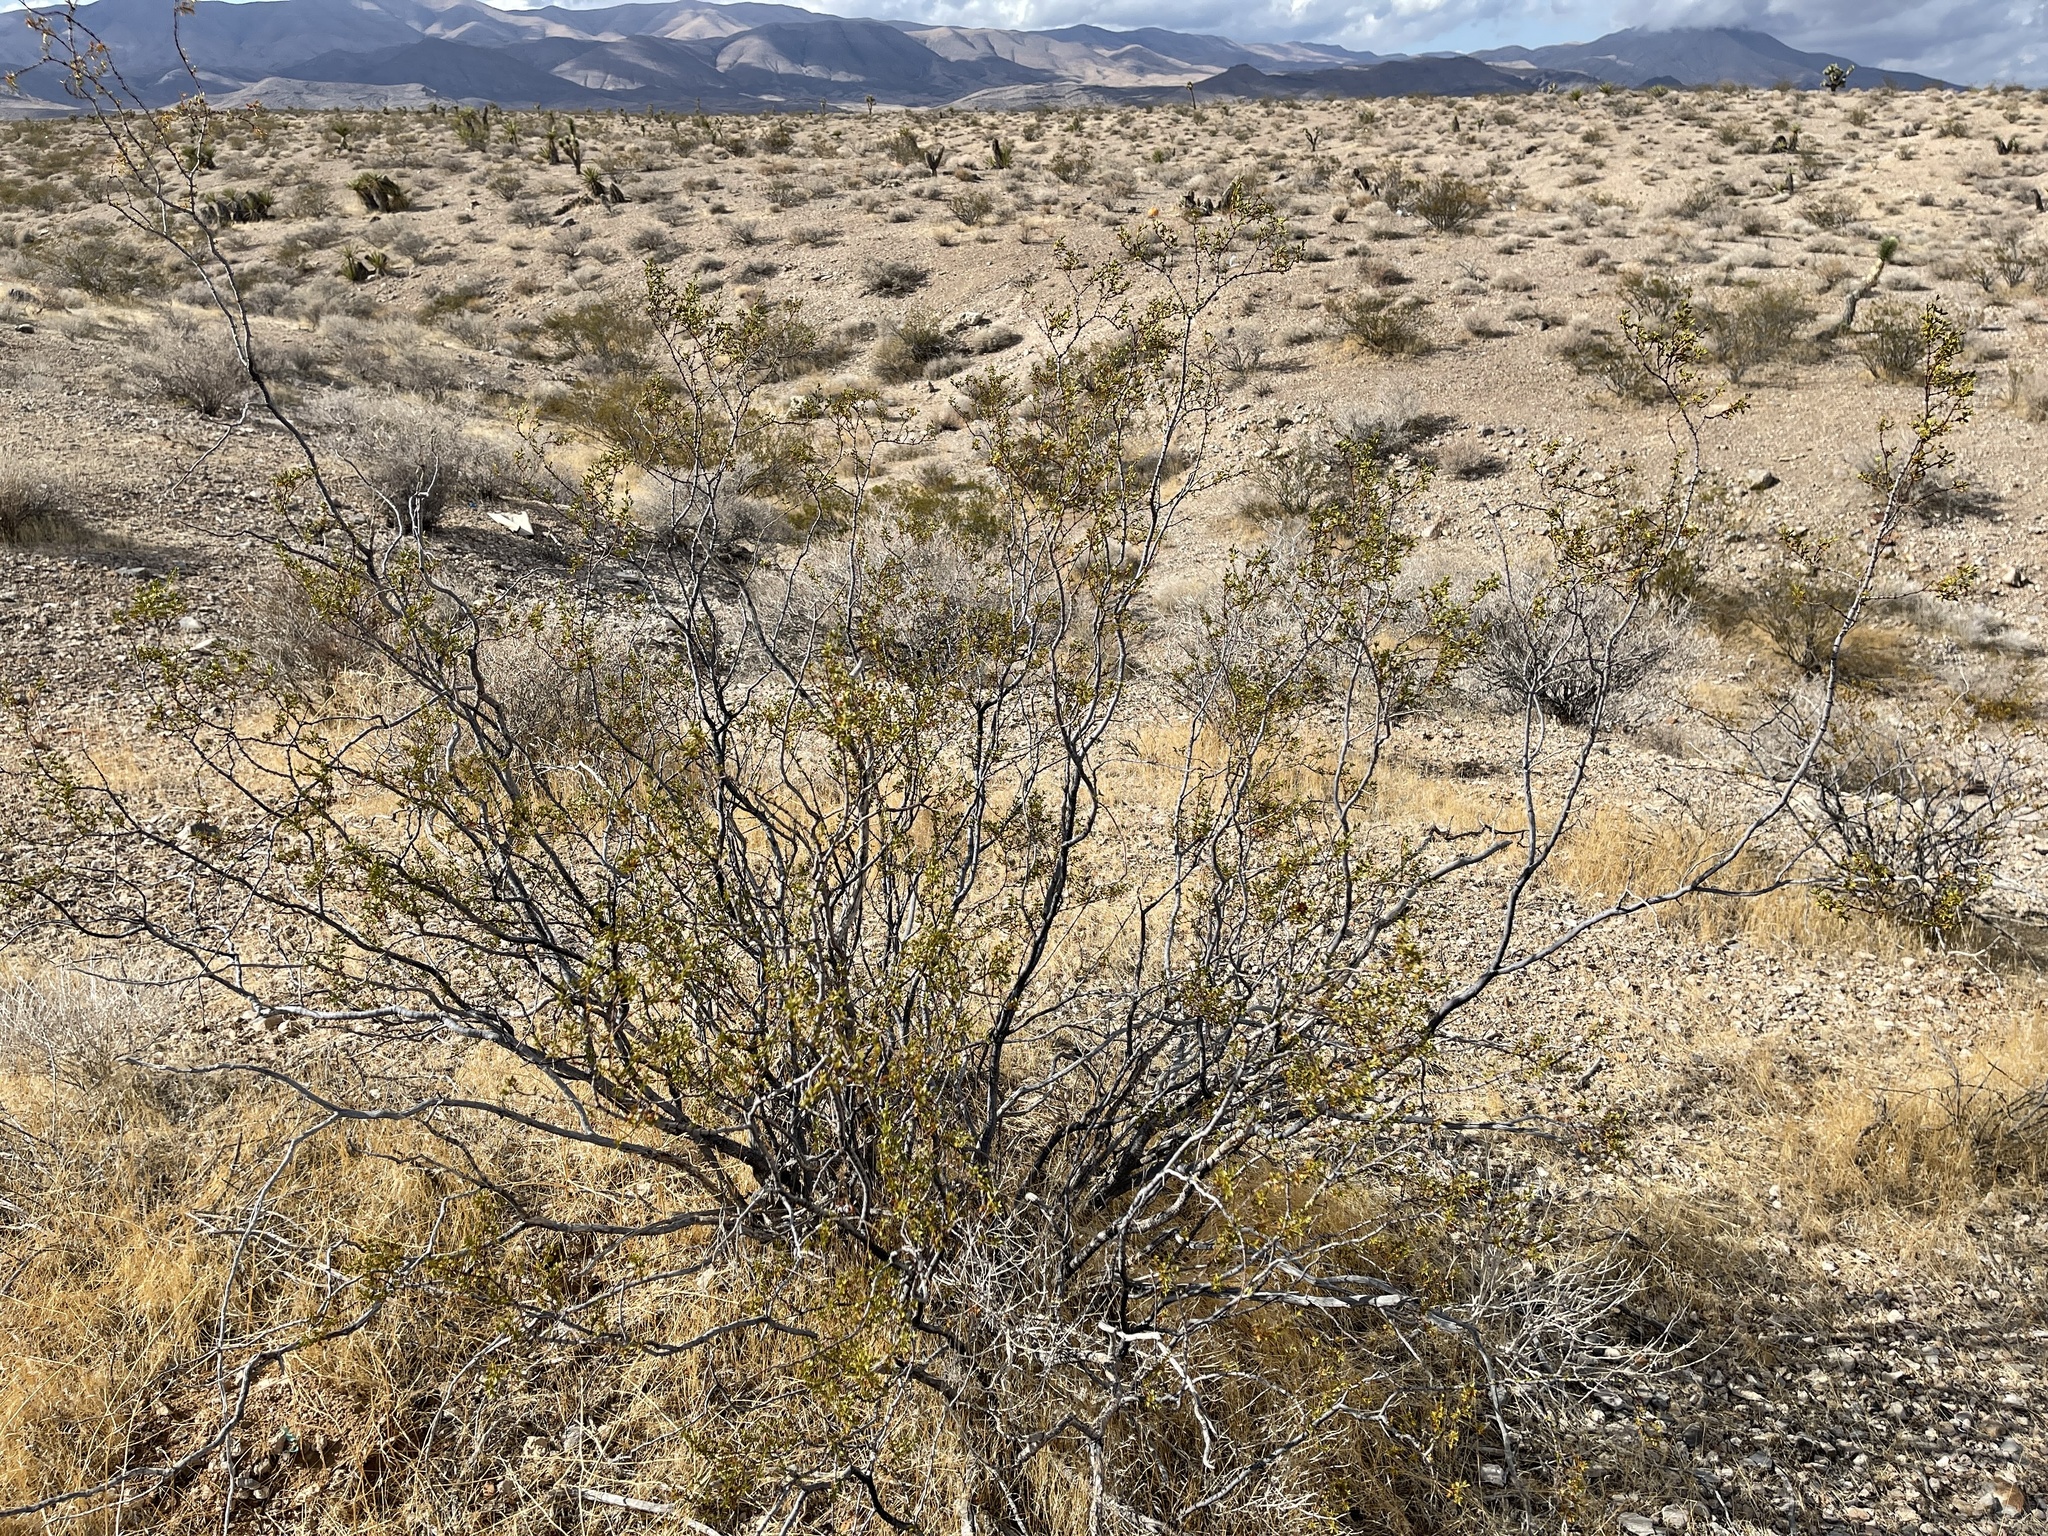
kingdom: Plantae
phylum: Tracheophyta
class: Magnoliopsida
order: Zygophyllales
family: Zygophyllaceae
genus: Larrea
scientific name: Larrea tridentata
